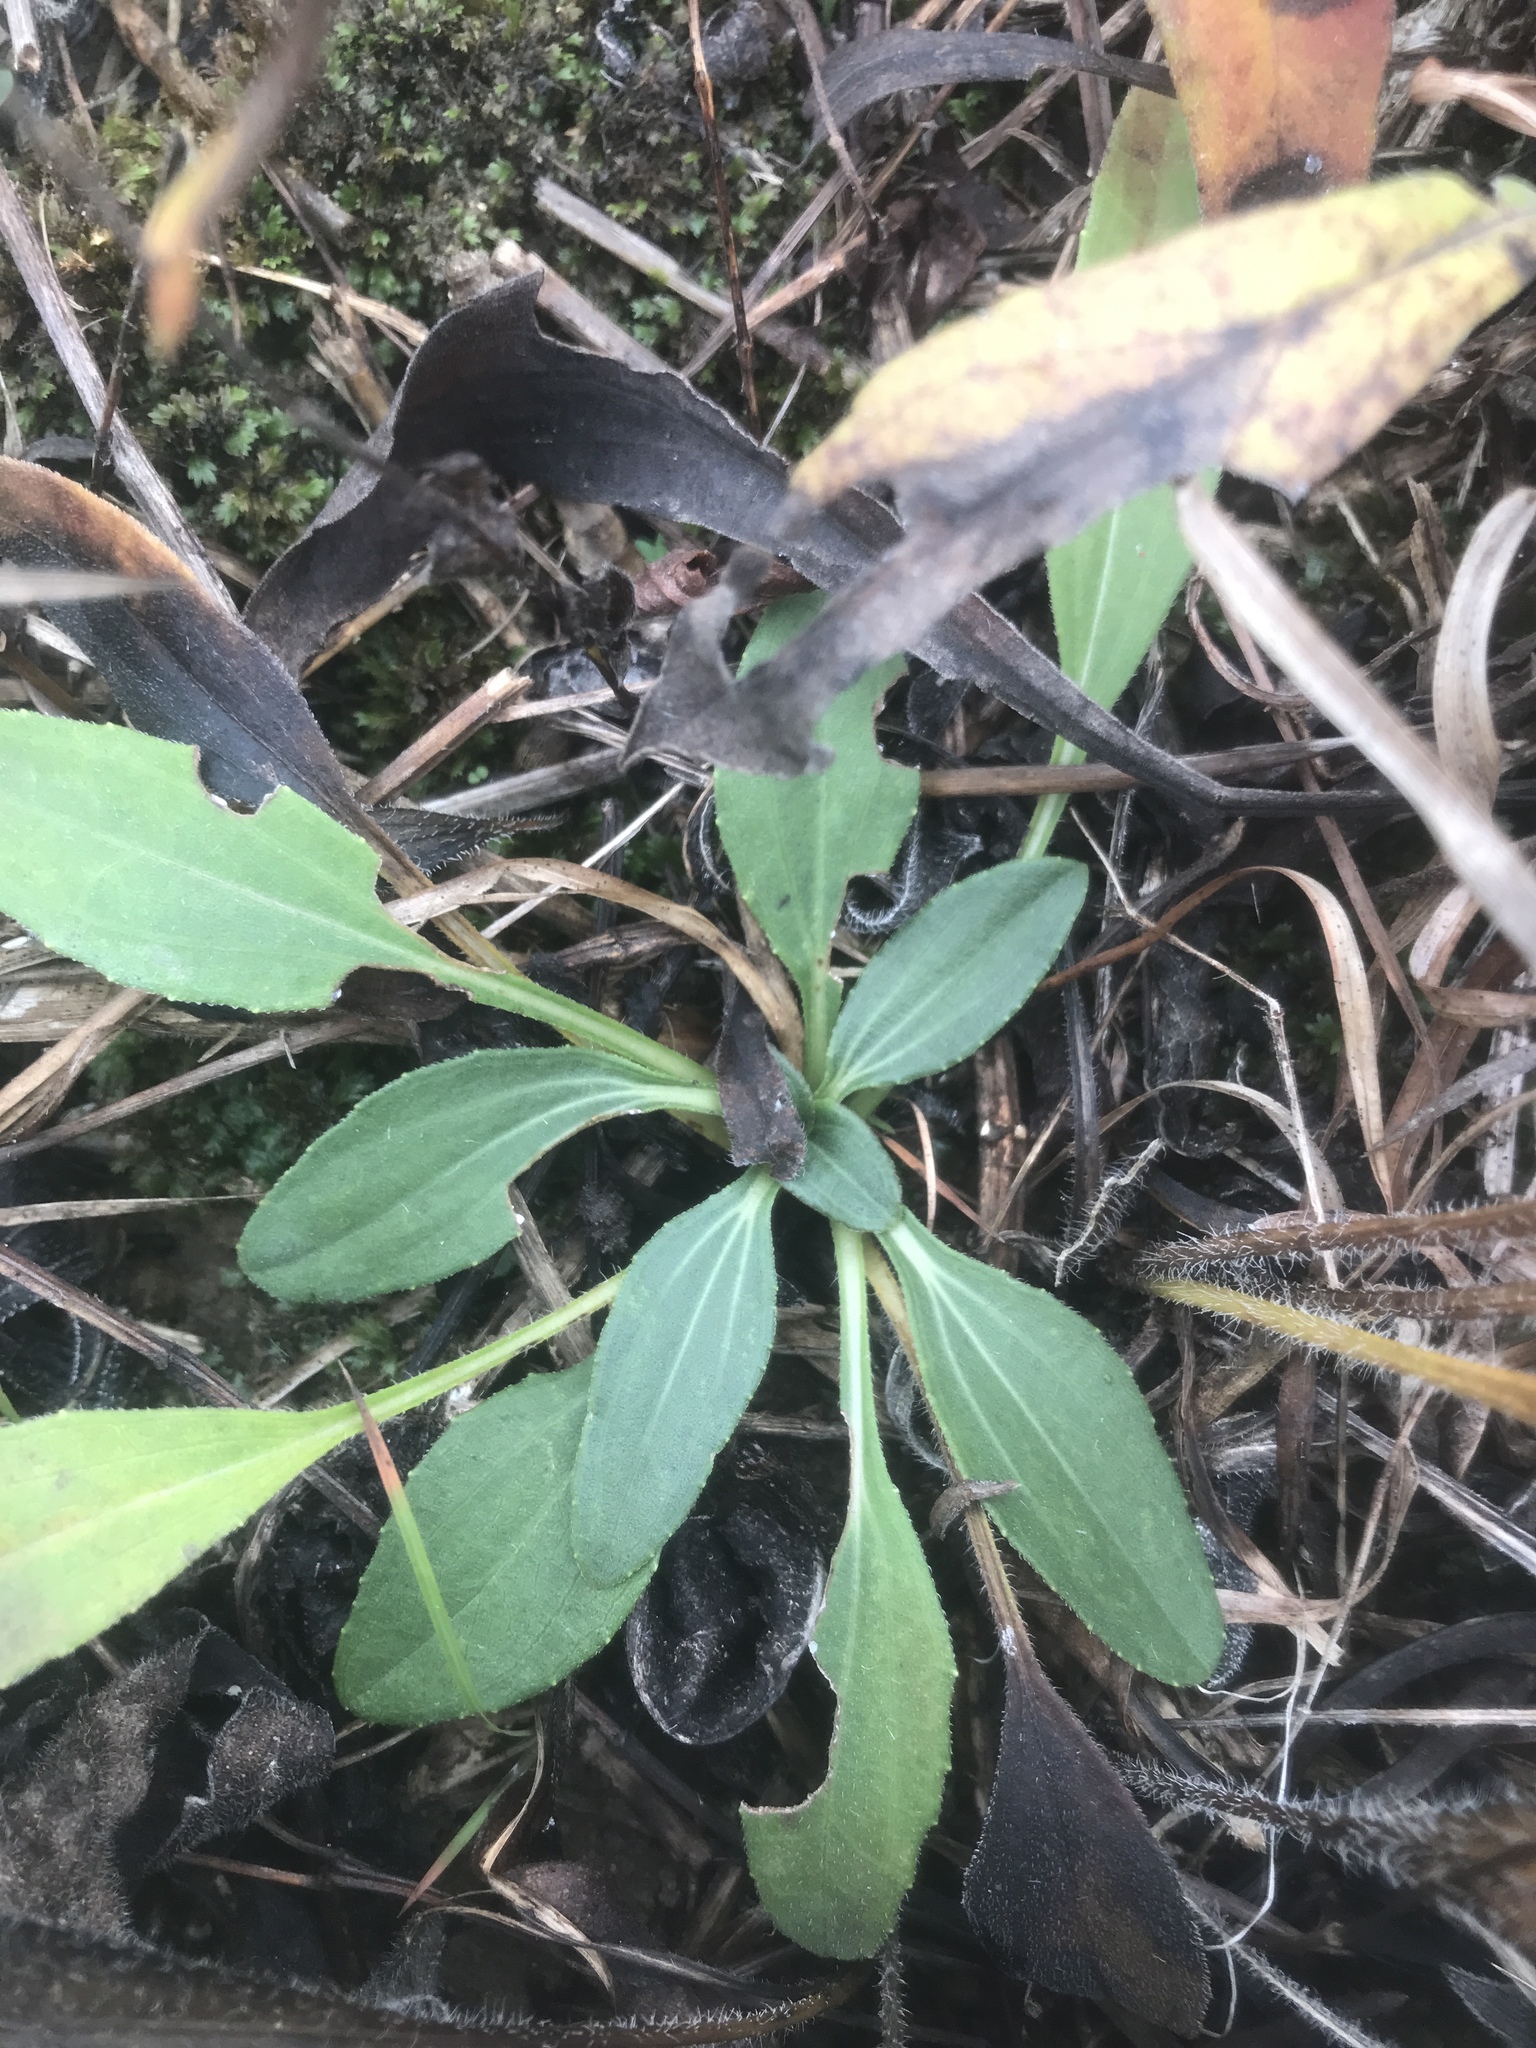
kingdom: Plantae
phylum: Tracheophyta
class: Magnoliopsida
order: Asterales
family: Asteraceae
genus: Helianthus
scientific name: Helianthus occidentalis
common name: Western sunflower
